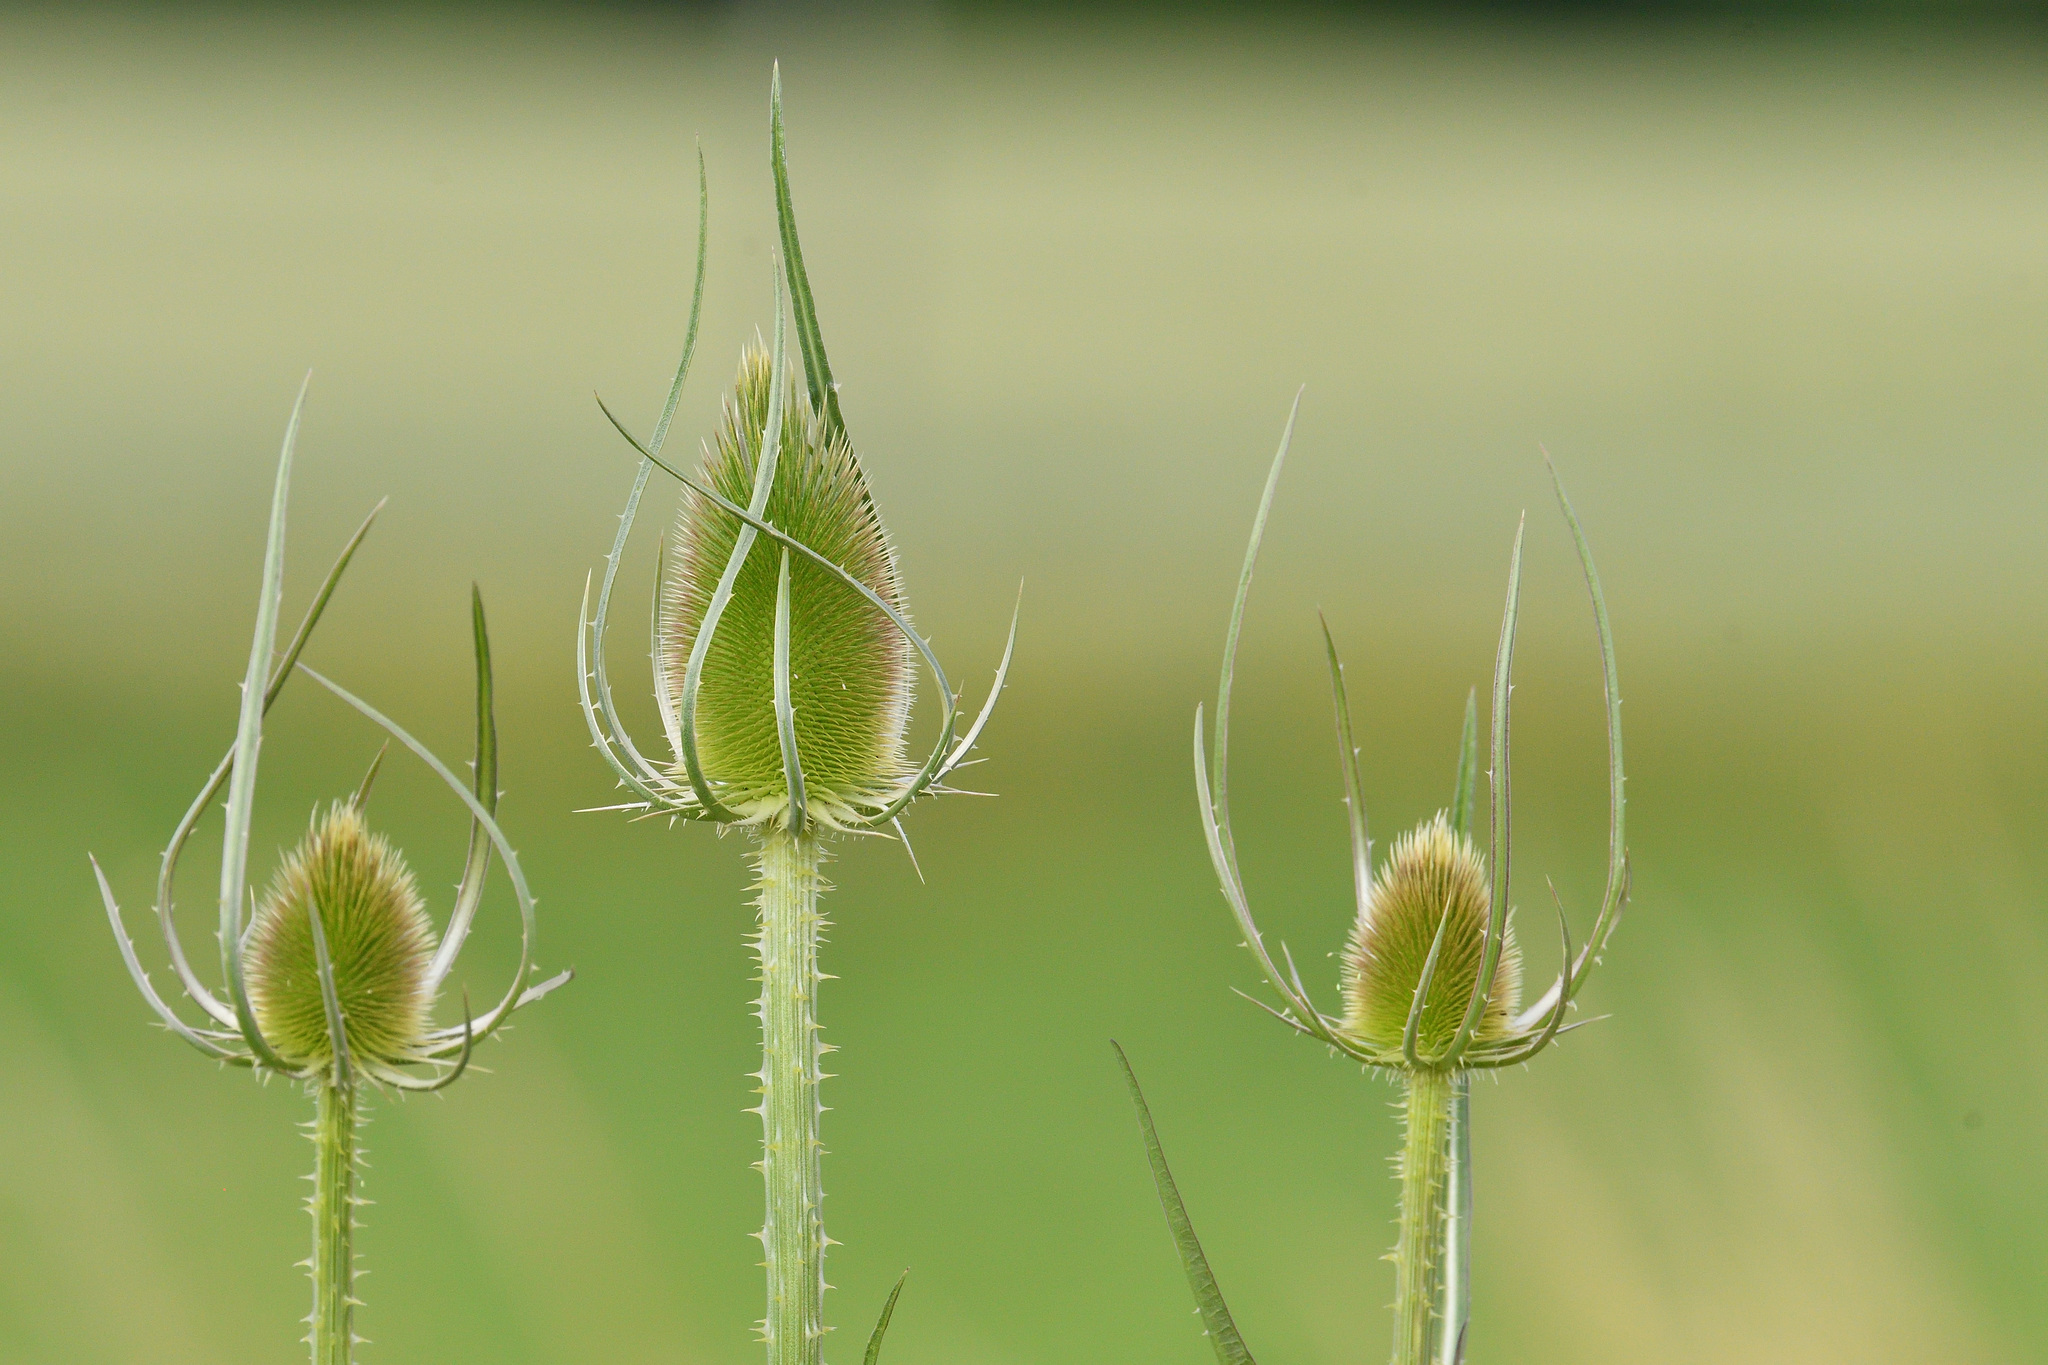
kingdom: Plantae
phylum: Tracheophyta
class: Magnoliopsida
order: Dipsacales
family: Caprifoliaceae
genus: Dipsacus
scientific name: Dipsacus fullonum
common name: Teasel
